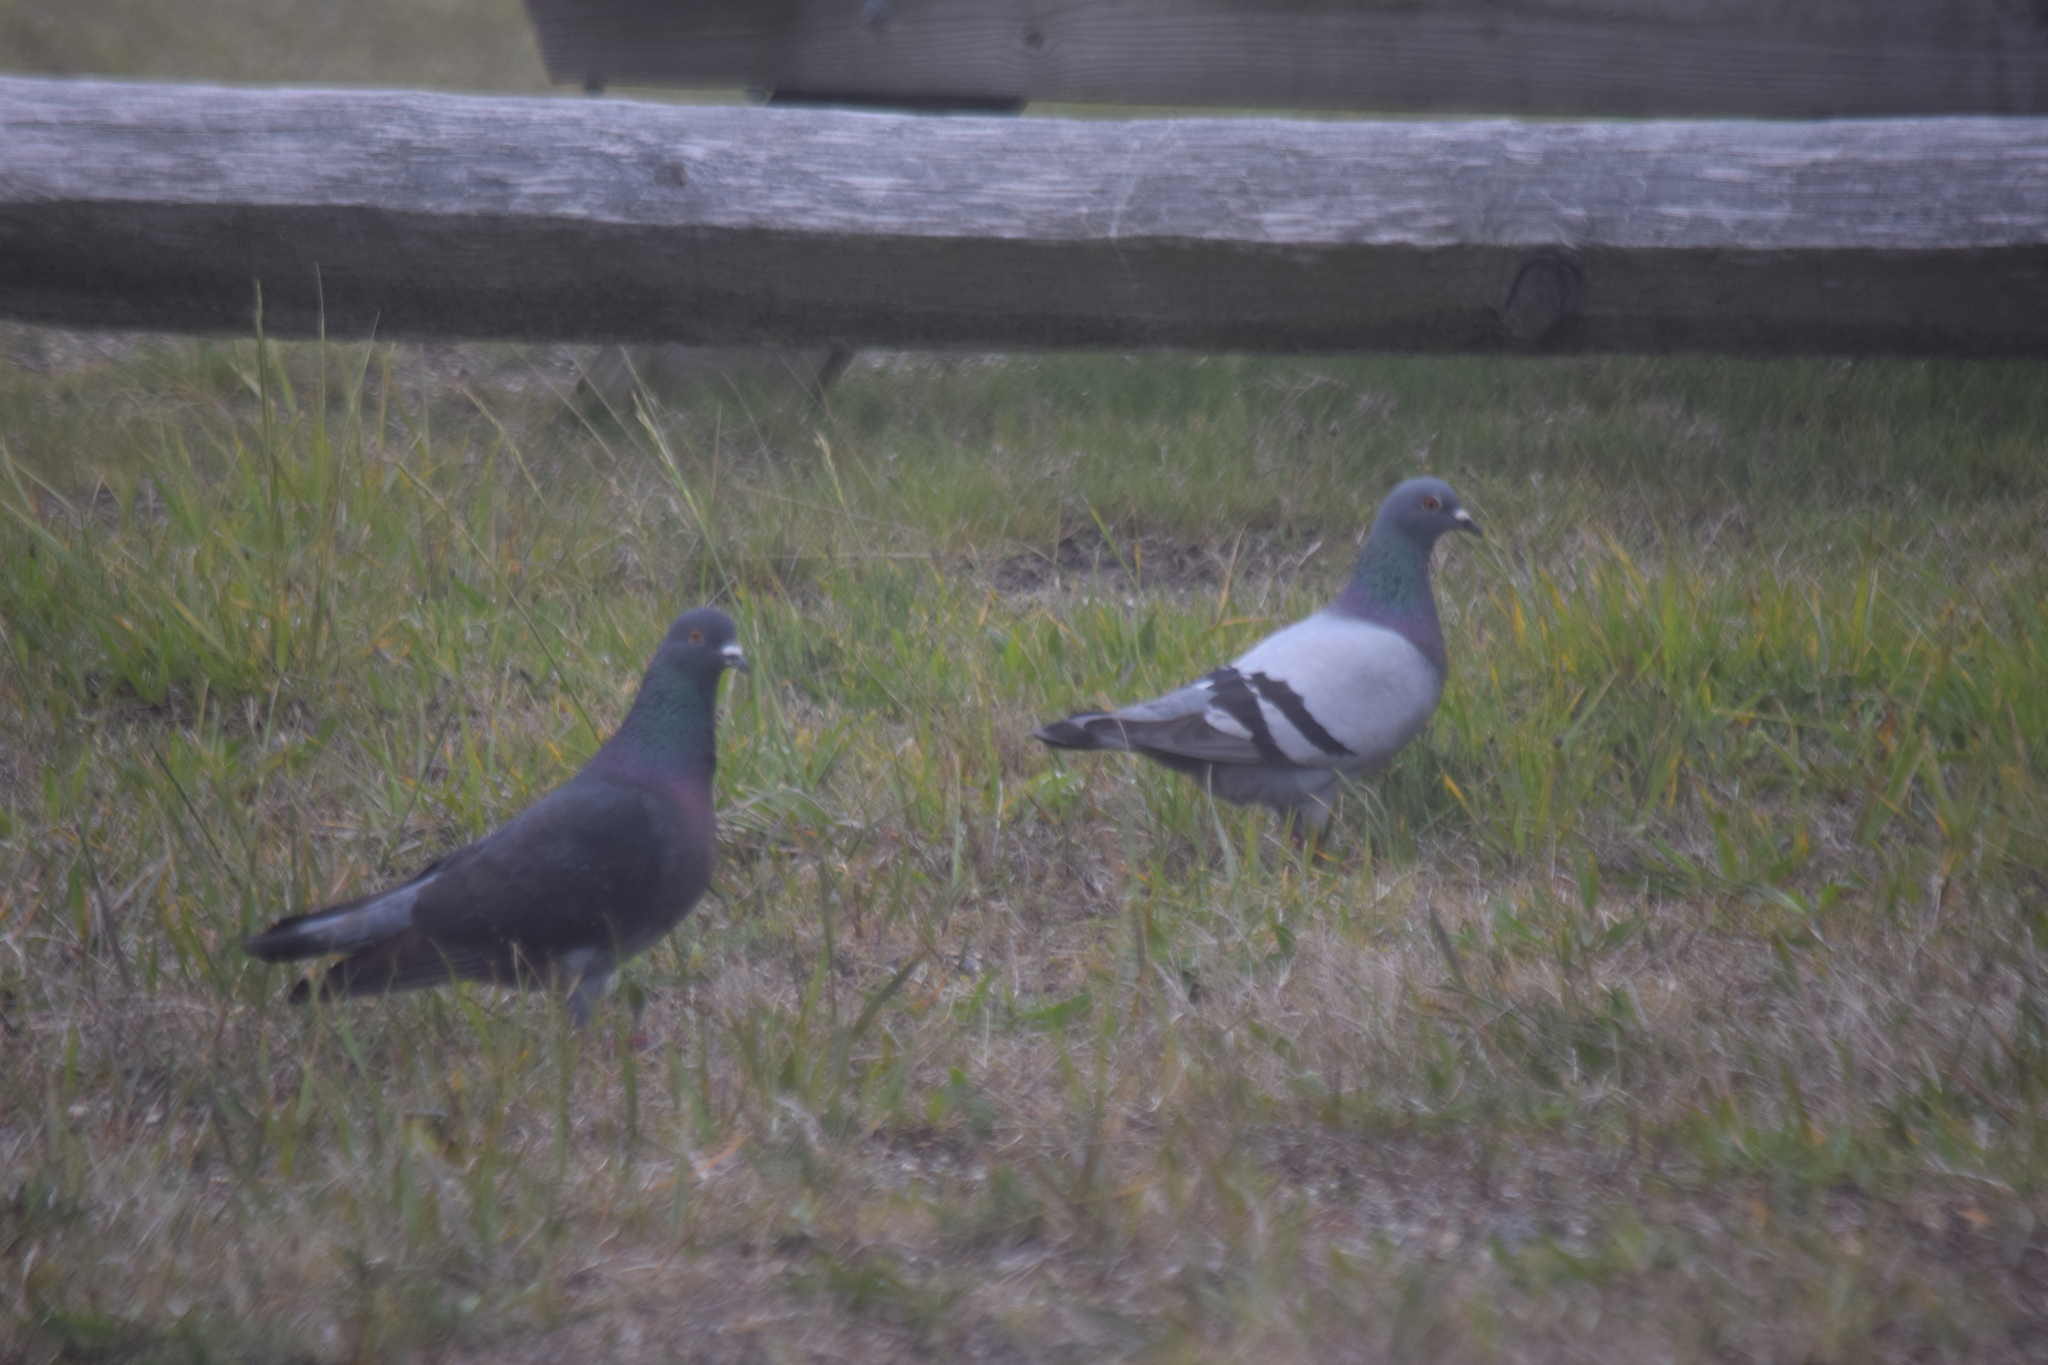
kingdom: Animalia
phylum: Chordata
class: Aves
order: Columbiformes
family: Columbidae
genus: Columba
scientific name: Columba livia
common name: Rock pigeon
